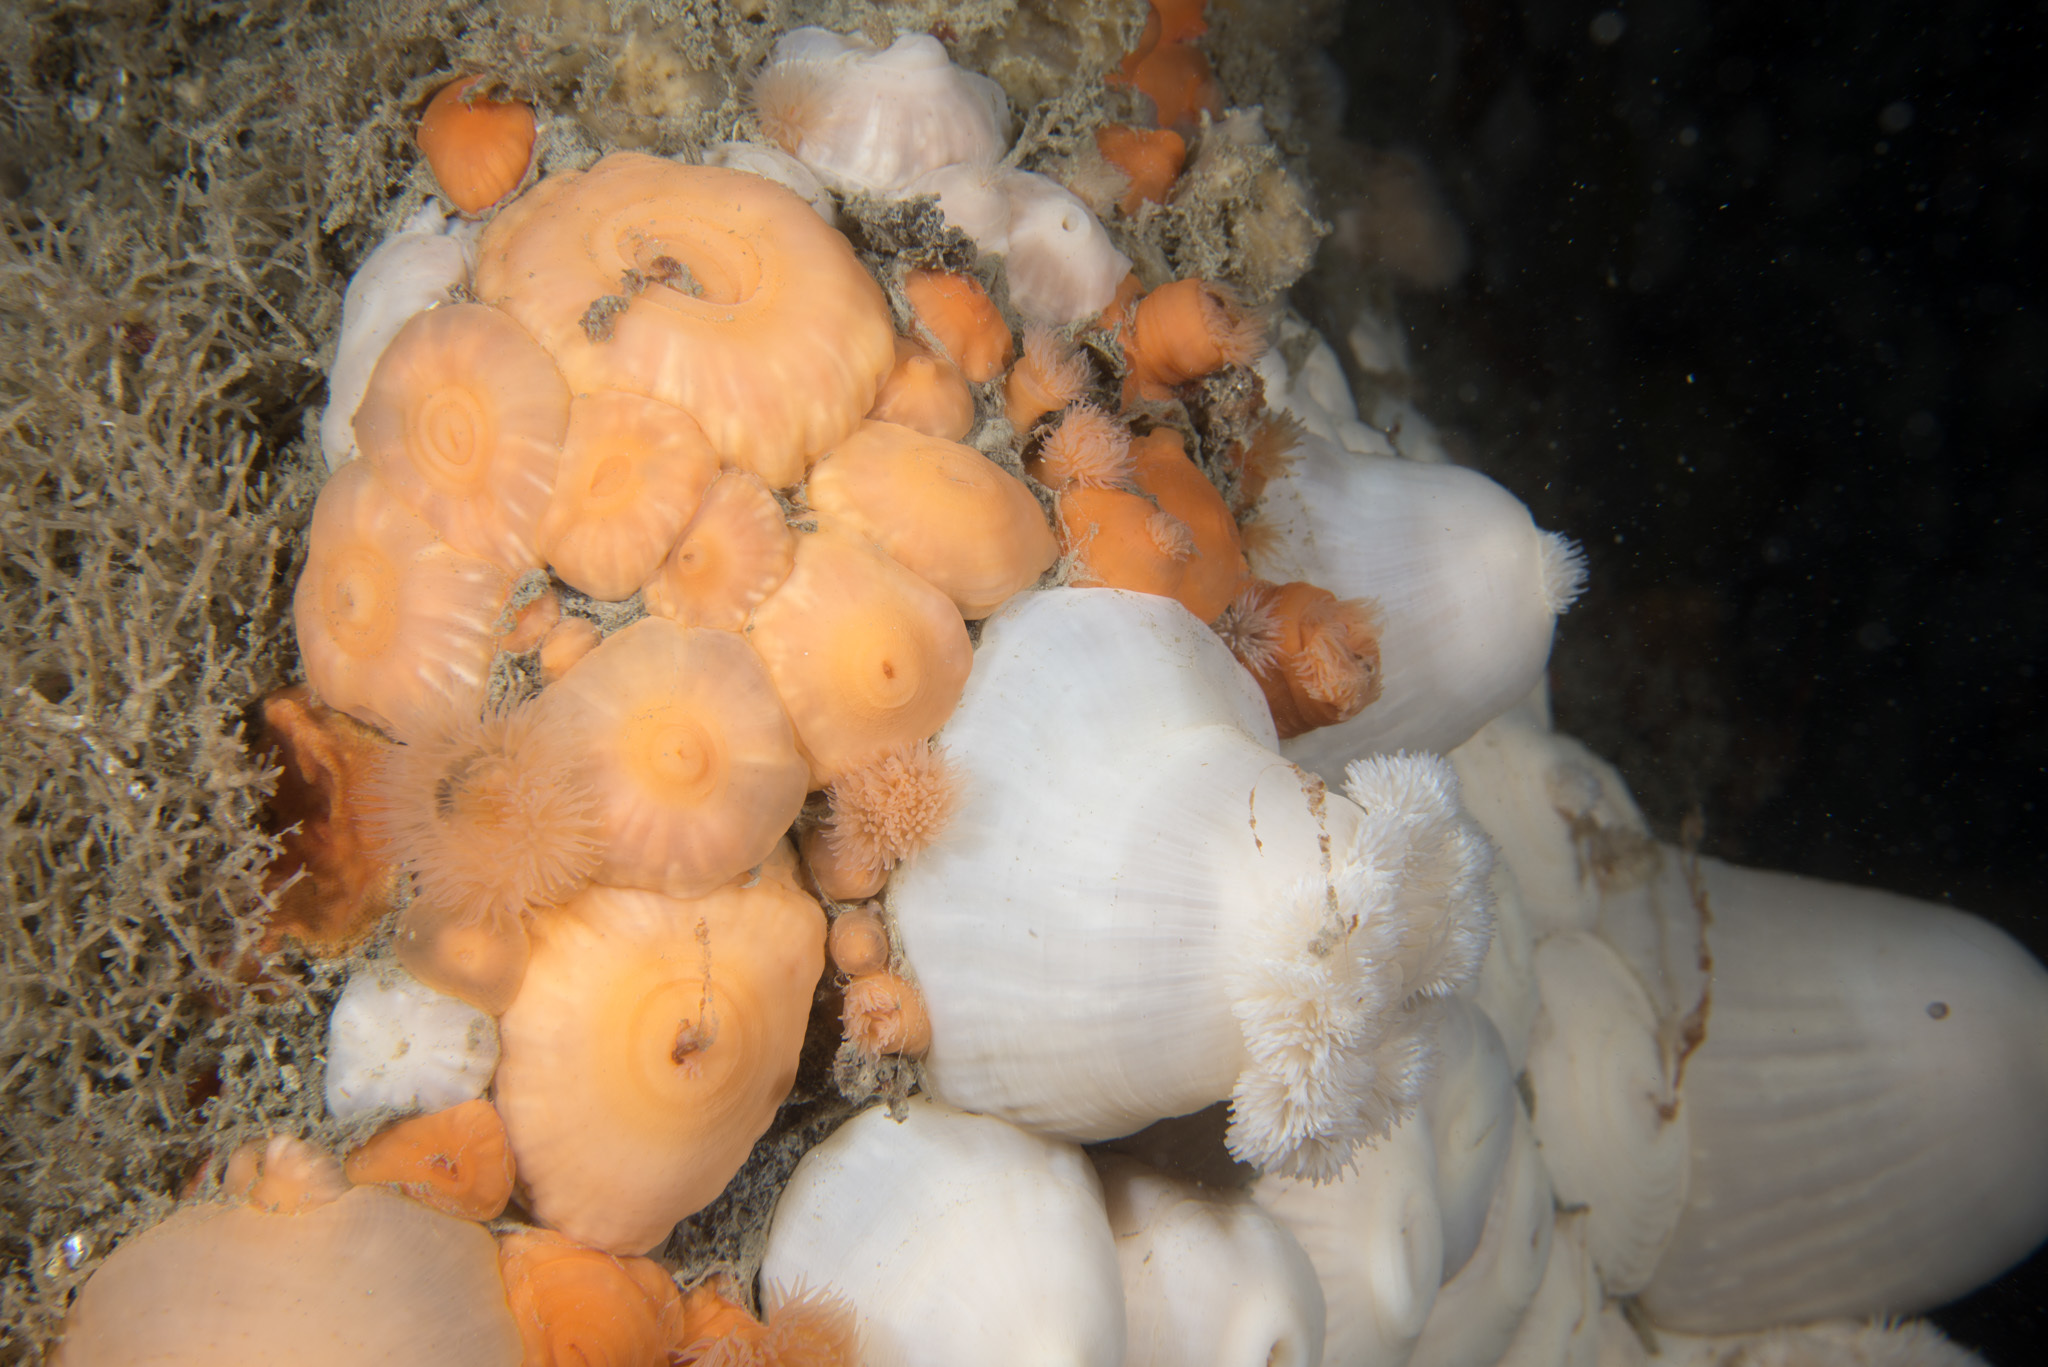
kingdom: Animalia
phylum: Cnidaria
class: Anthozoa
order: Actiniaria
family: Metridiidae
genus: Metridium
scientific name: Metridium senile
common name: Clonal plumose anemone
